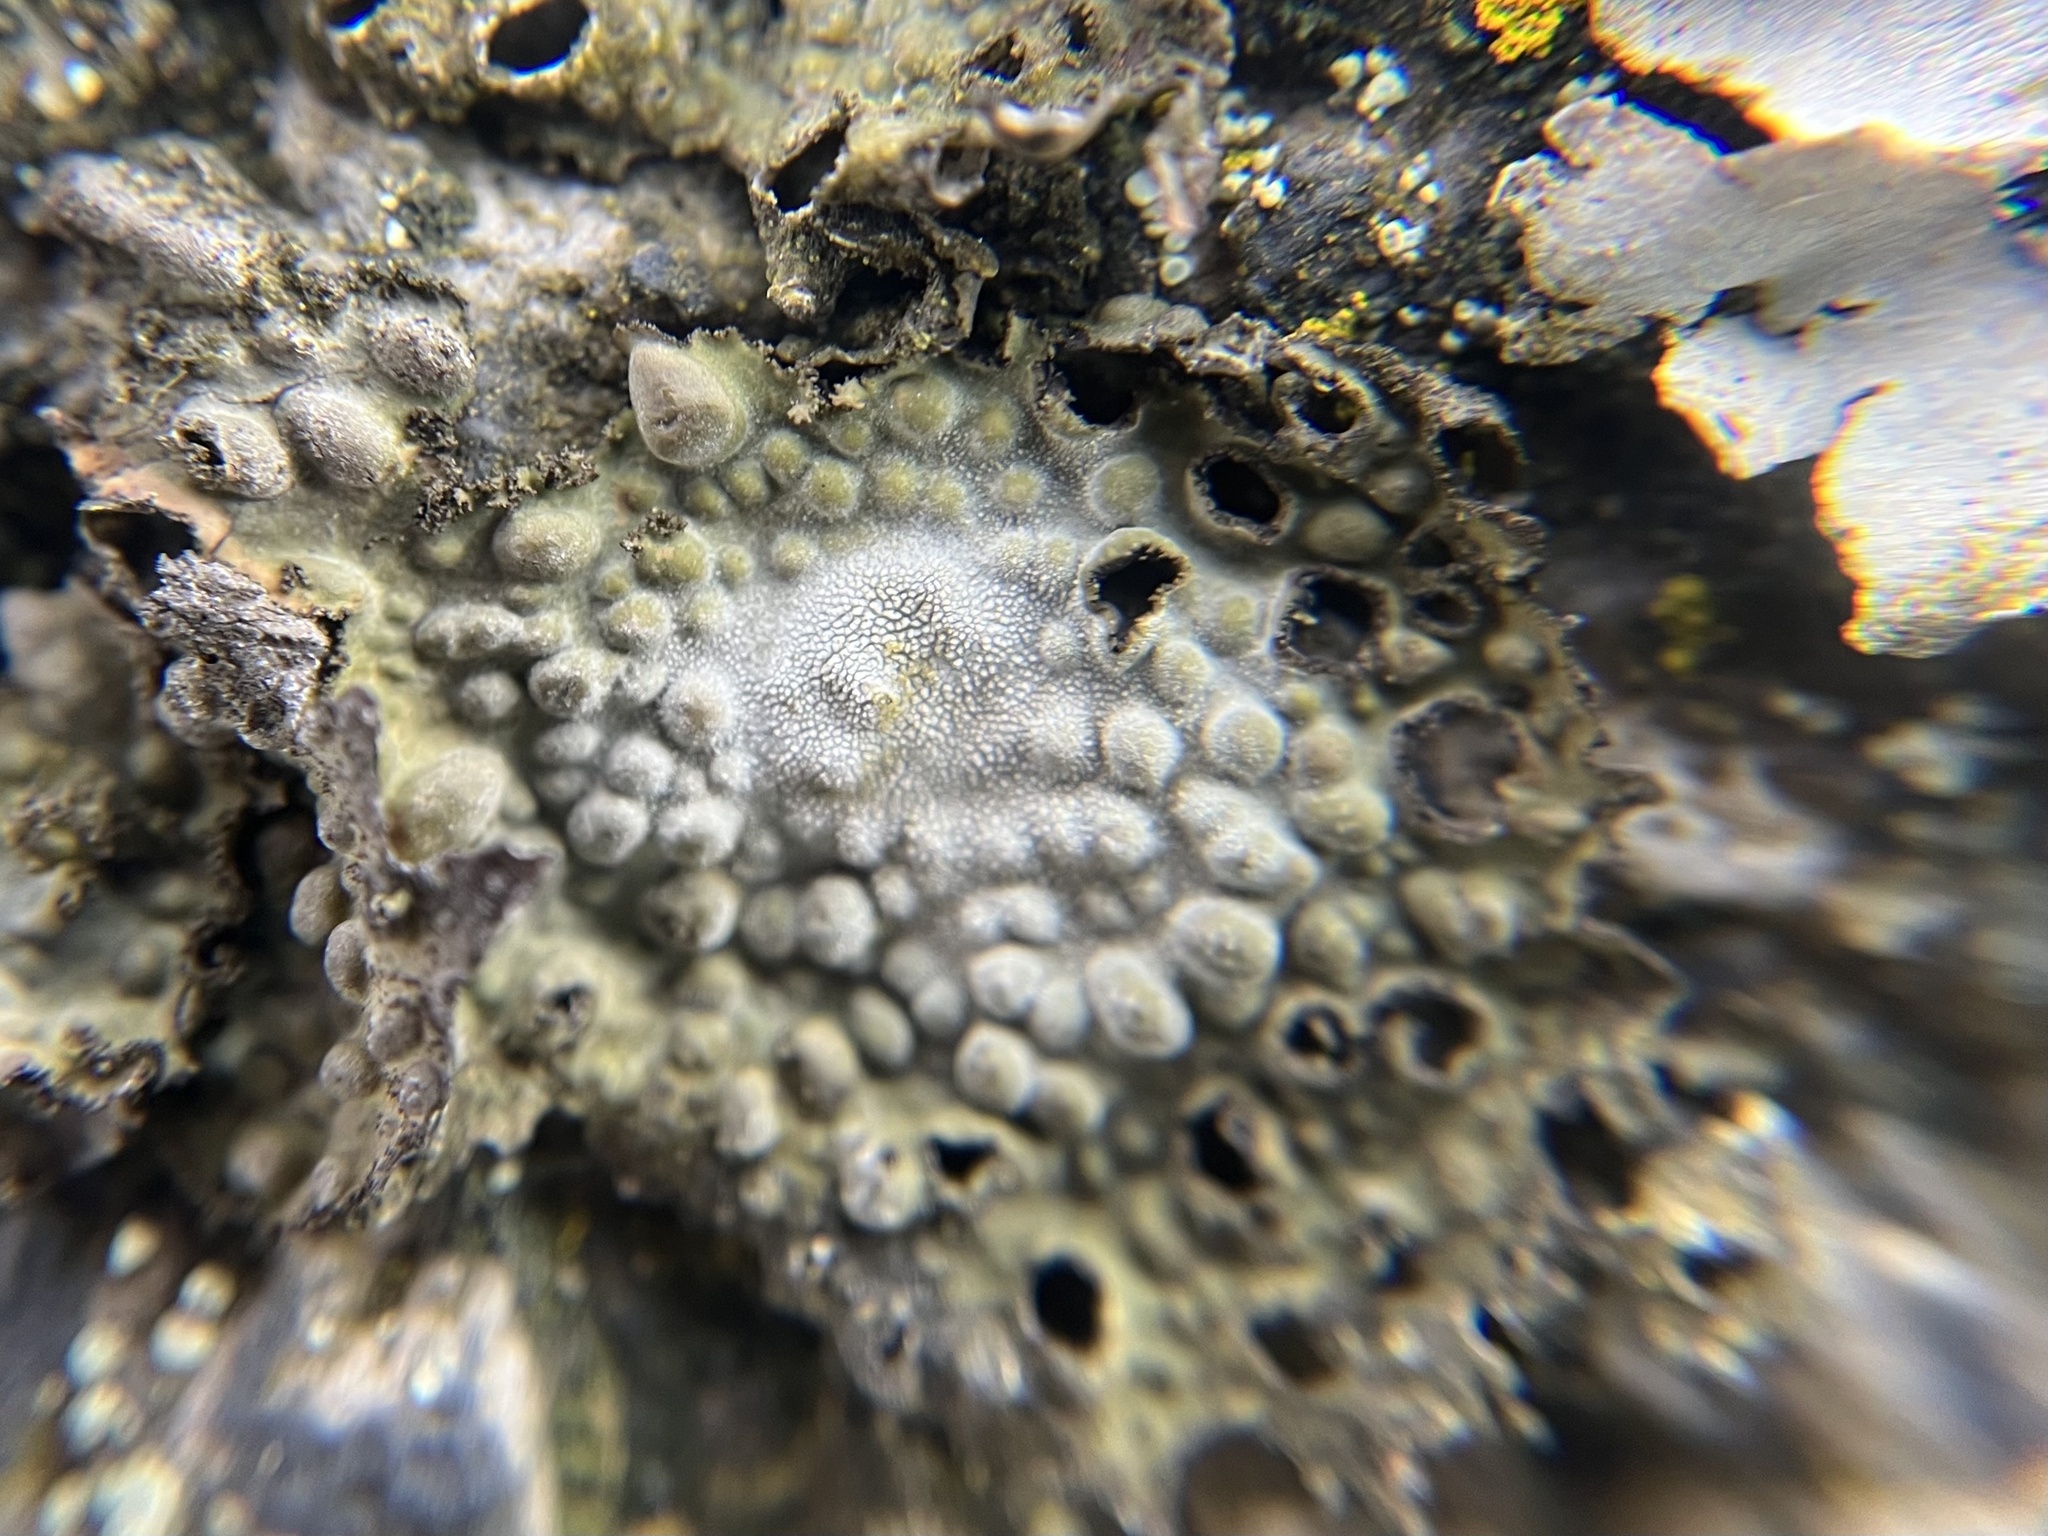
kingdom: Fungi
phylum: Ascomycota
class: Lecanoromycetes
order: Umbilicariales
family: Umbilicariaceae
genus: Lasallia
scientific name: Lasallia pustulata
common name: Blistered toadskin lichen
